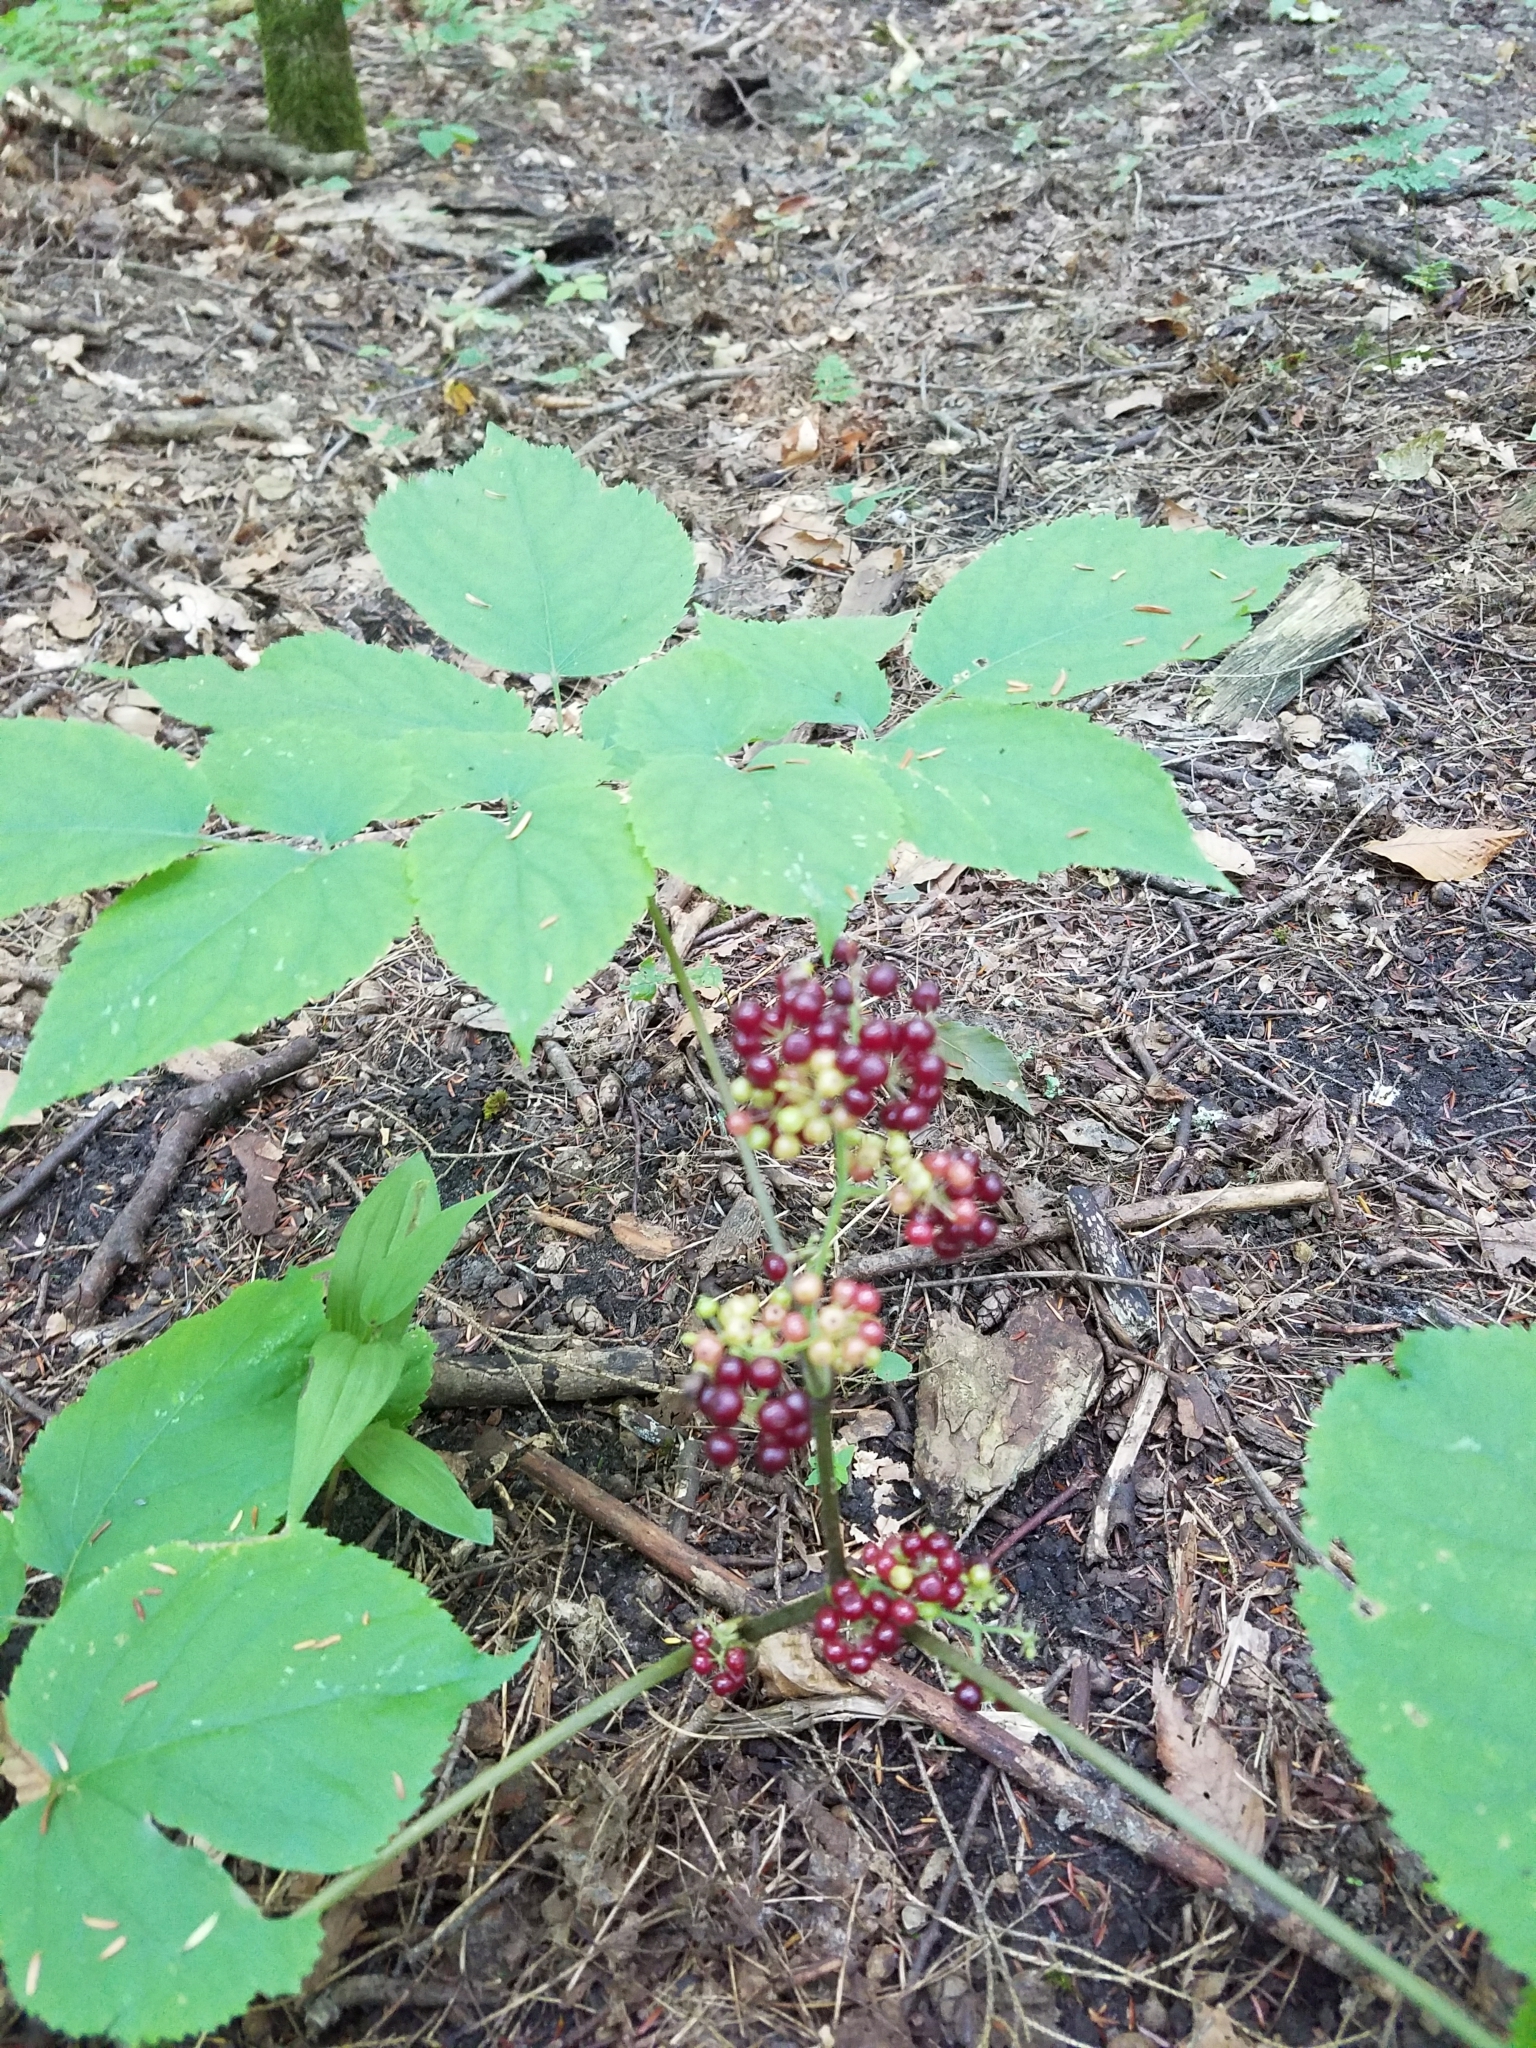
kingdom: Plantae
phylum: Tracheophyta
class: Magnoliopsida
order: Apiales
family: Araliaceae
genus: Aralia
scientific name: Aralia racemosa
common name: American-spikenard
